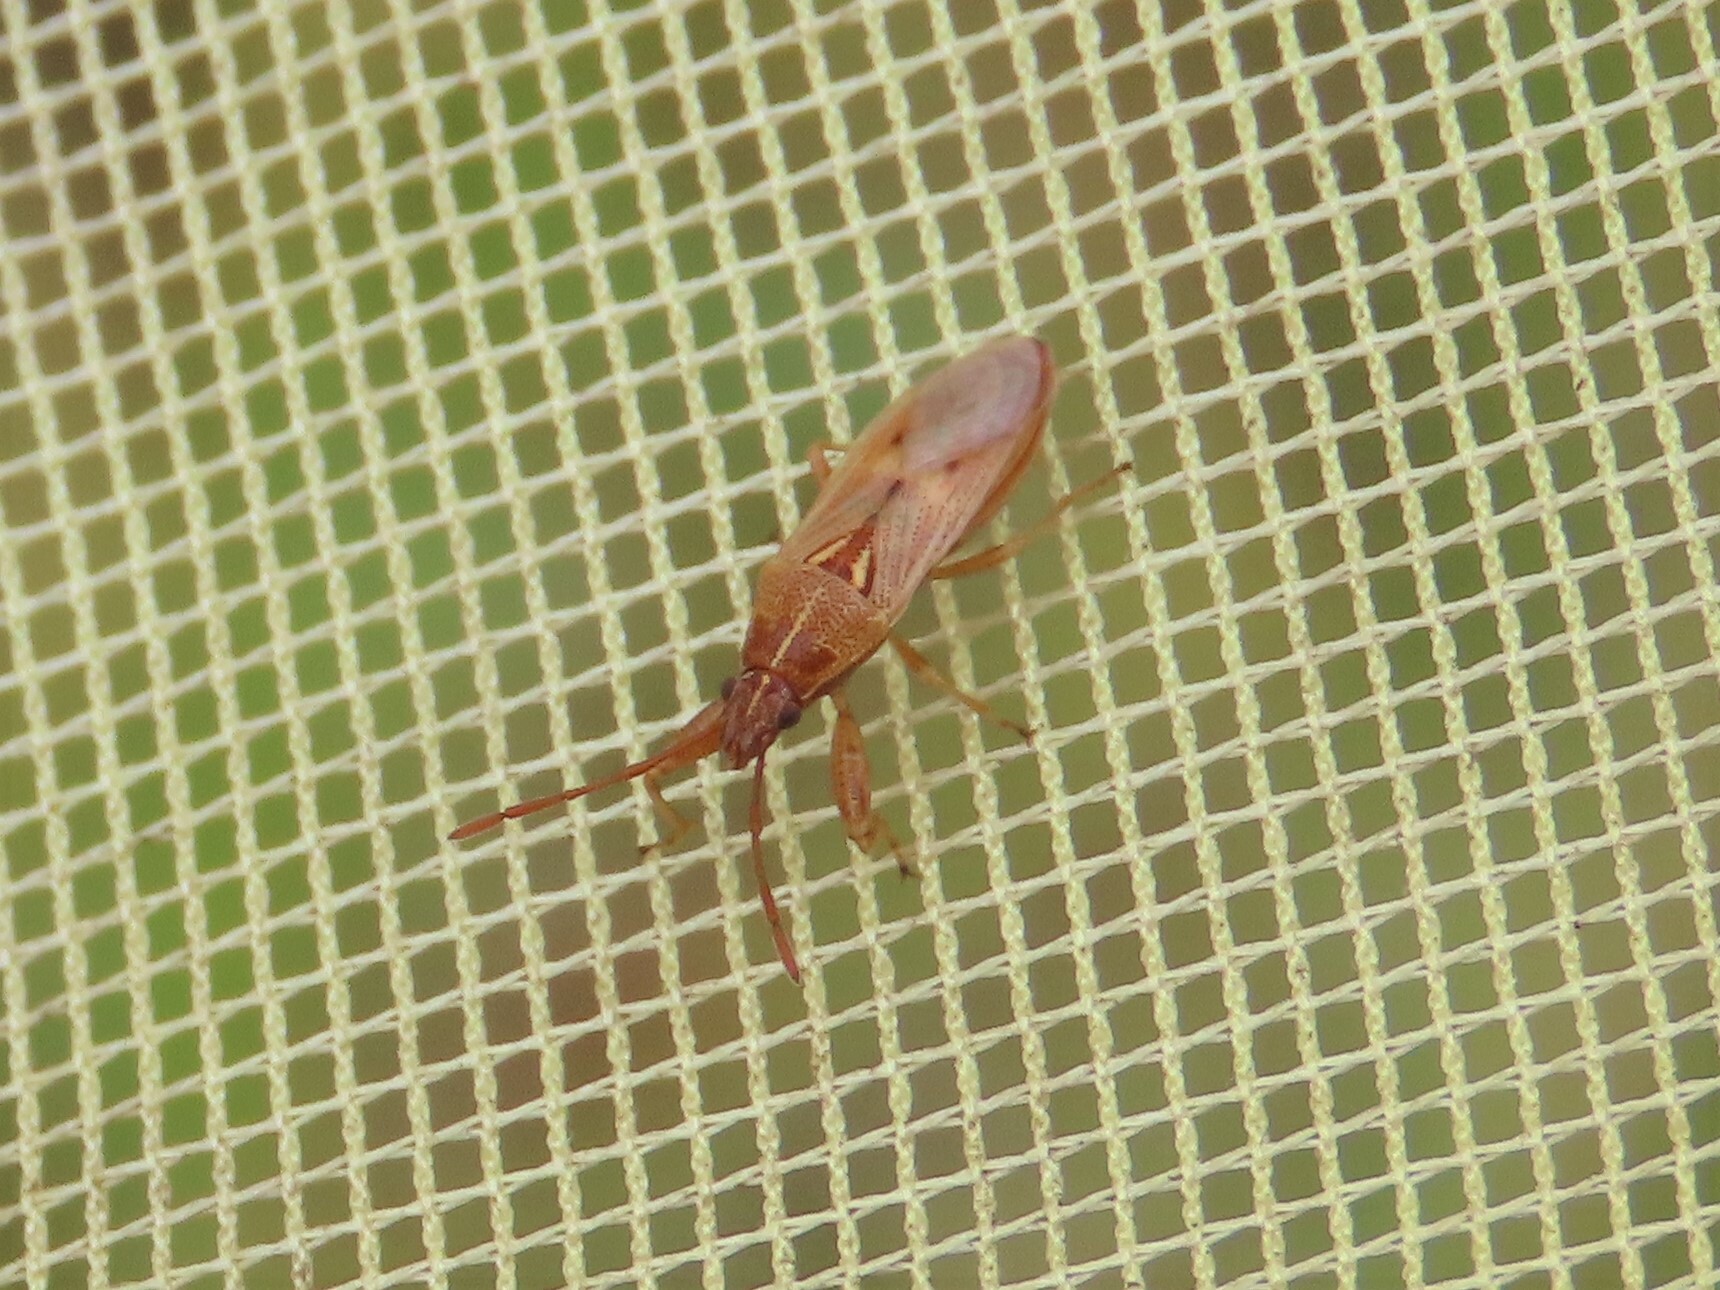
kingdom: Animalia
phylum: Arthropoda
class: Insecta
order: Hemiptera
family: Pachygronthidae
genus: Oedancala
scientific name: Oedancala crassimana
